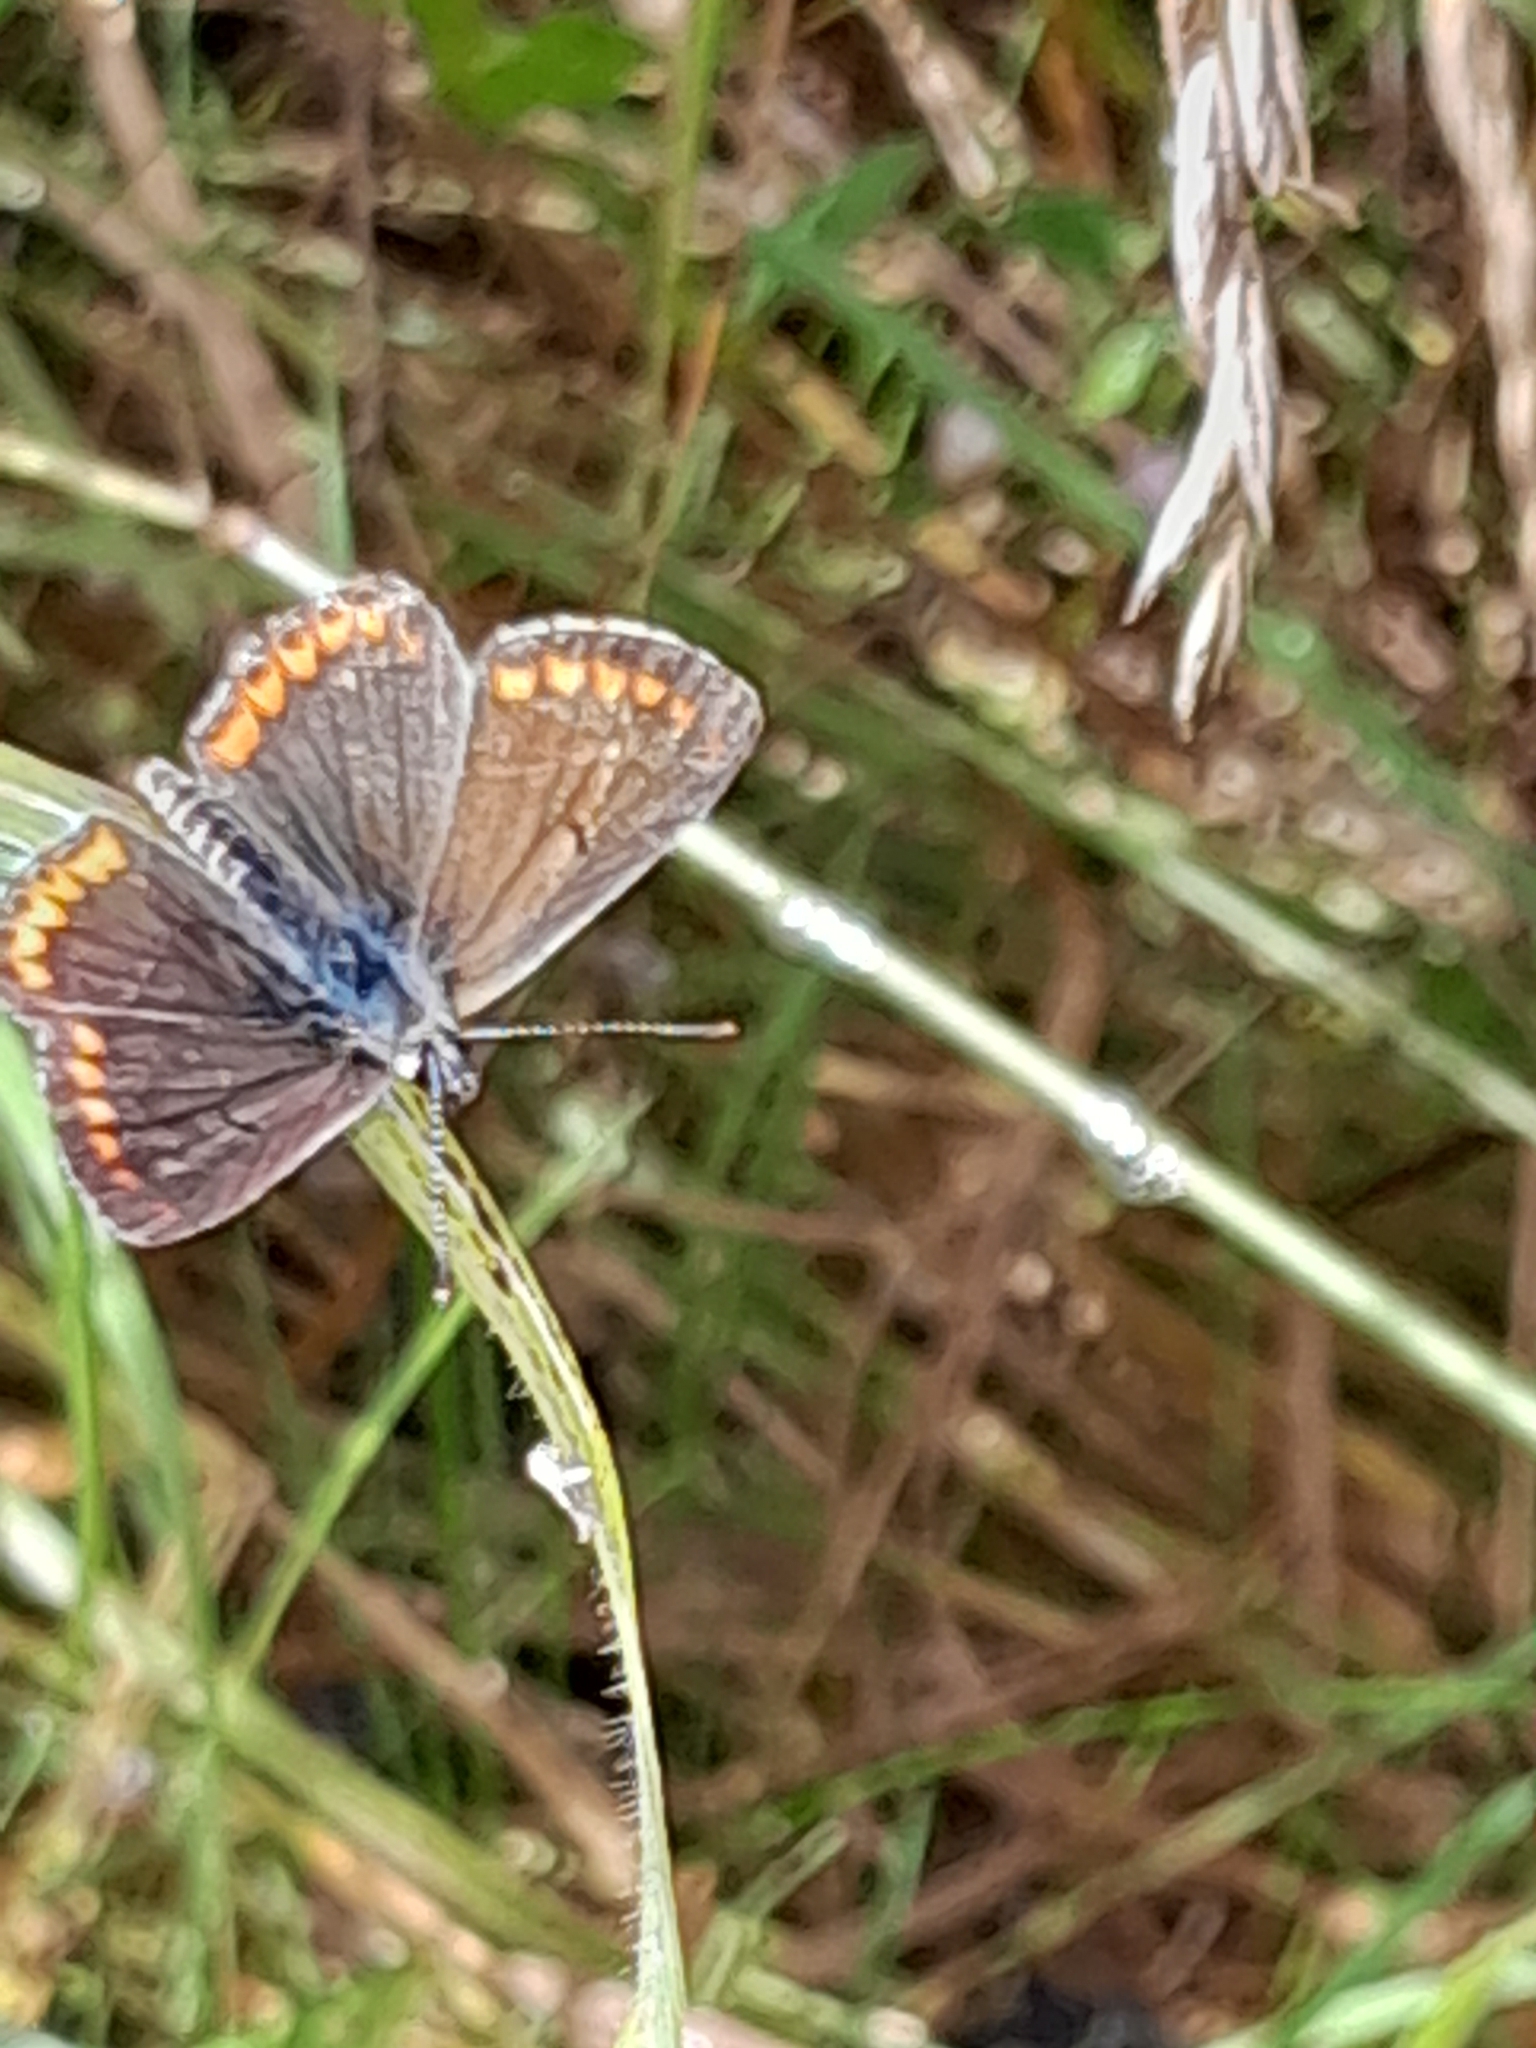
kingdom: Animalia
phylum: Arthropoda
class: Insecta
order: Lepidoptera
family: Lycaenidae
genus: Aricia
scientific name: Aricia agestis
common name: Brown argus
